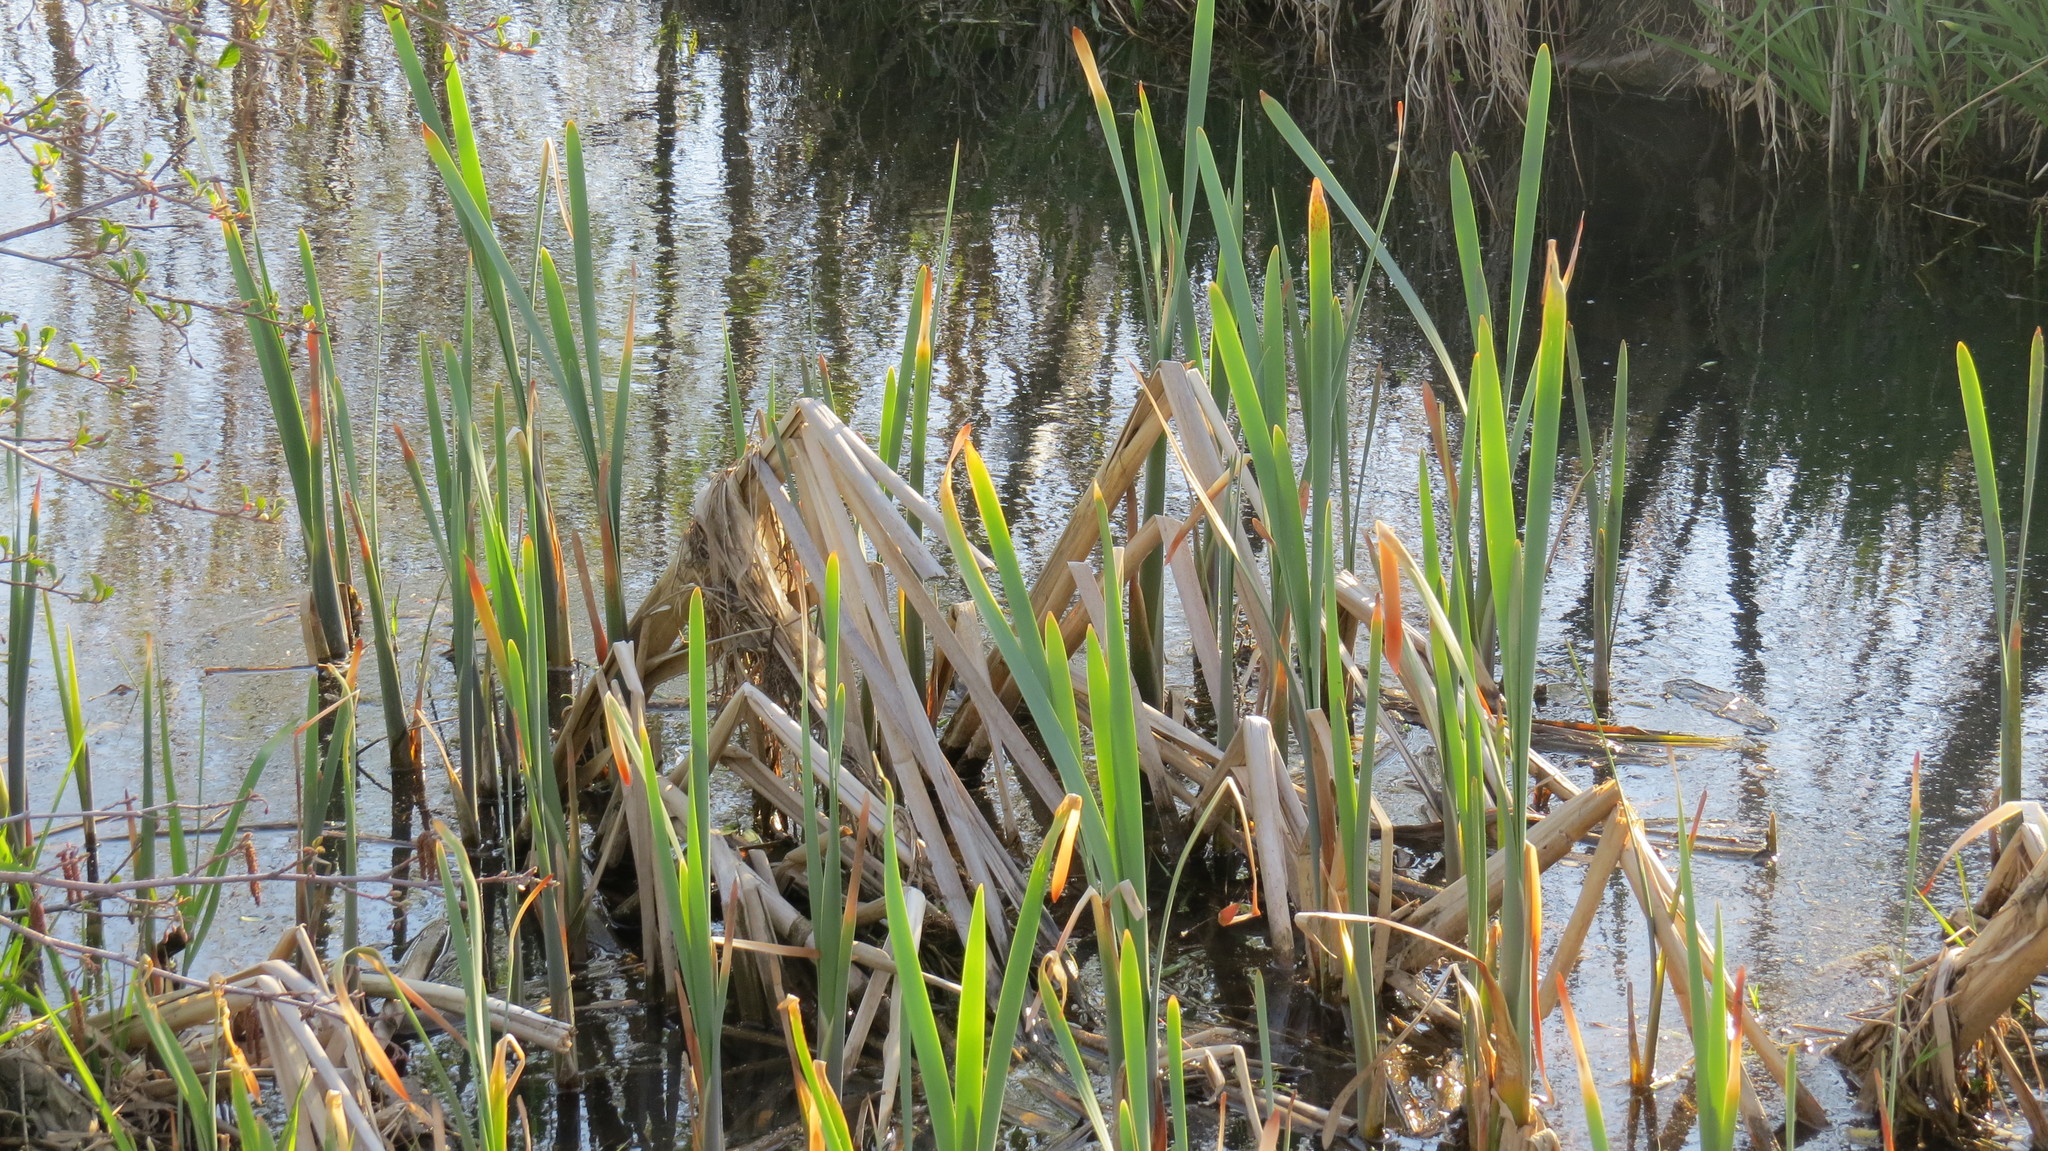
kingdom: Plantae
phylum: Tracheophyta
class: Liliopsida
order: Poales
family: Typhaceae
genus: Typha
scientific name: Typha latifolia
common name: Broadleaf cattail
